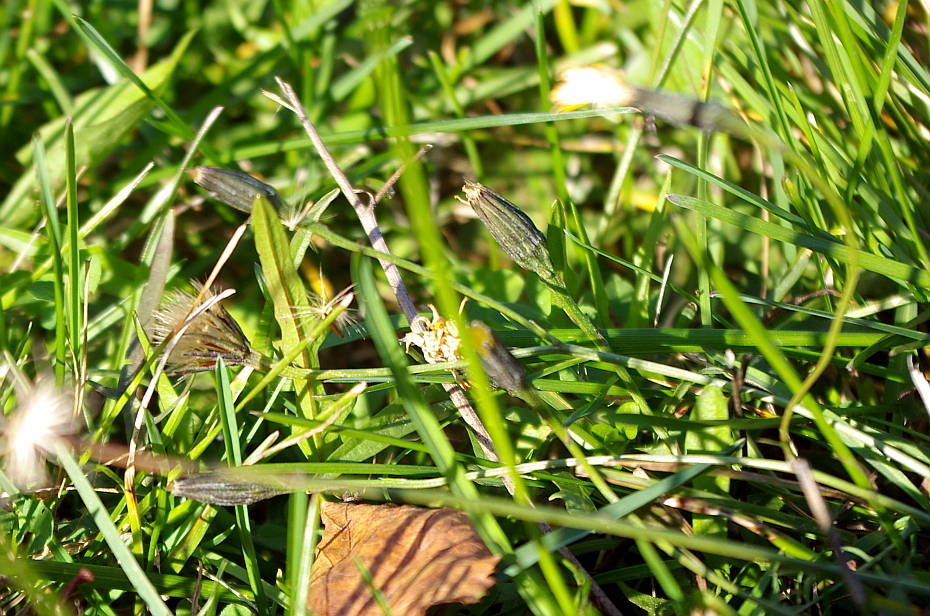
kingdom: Plantae
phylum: Tracheophyta
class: Magnoliopsida
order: Asterales
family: Asteraceae
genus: Scorzoneroides
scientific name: Scorzoneroides autumnalis
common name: Autumn hawkbit
